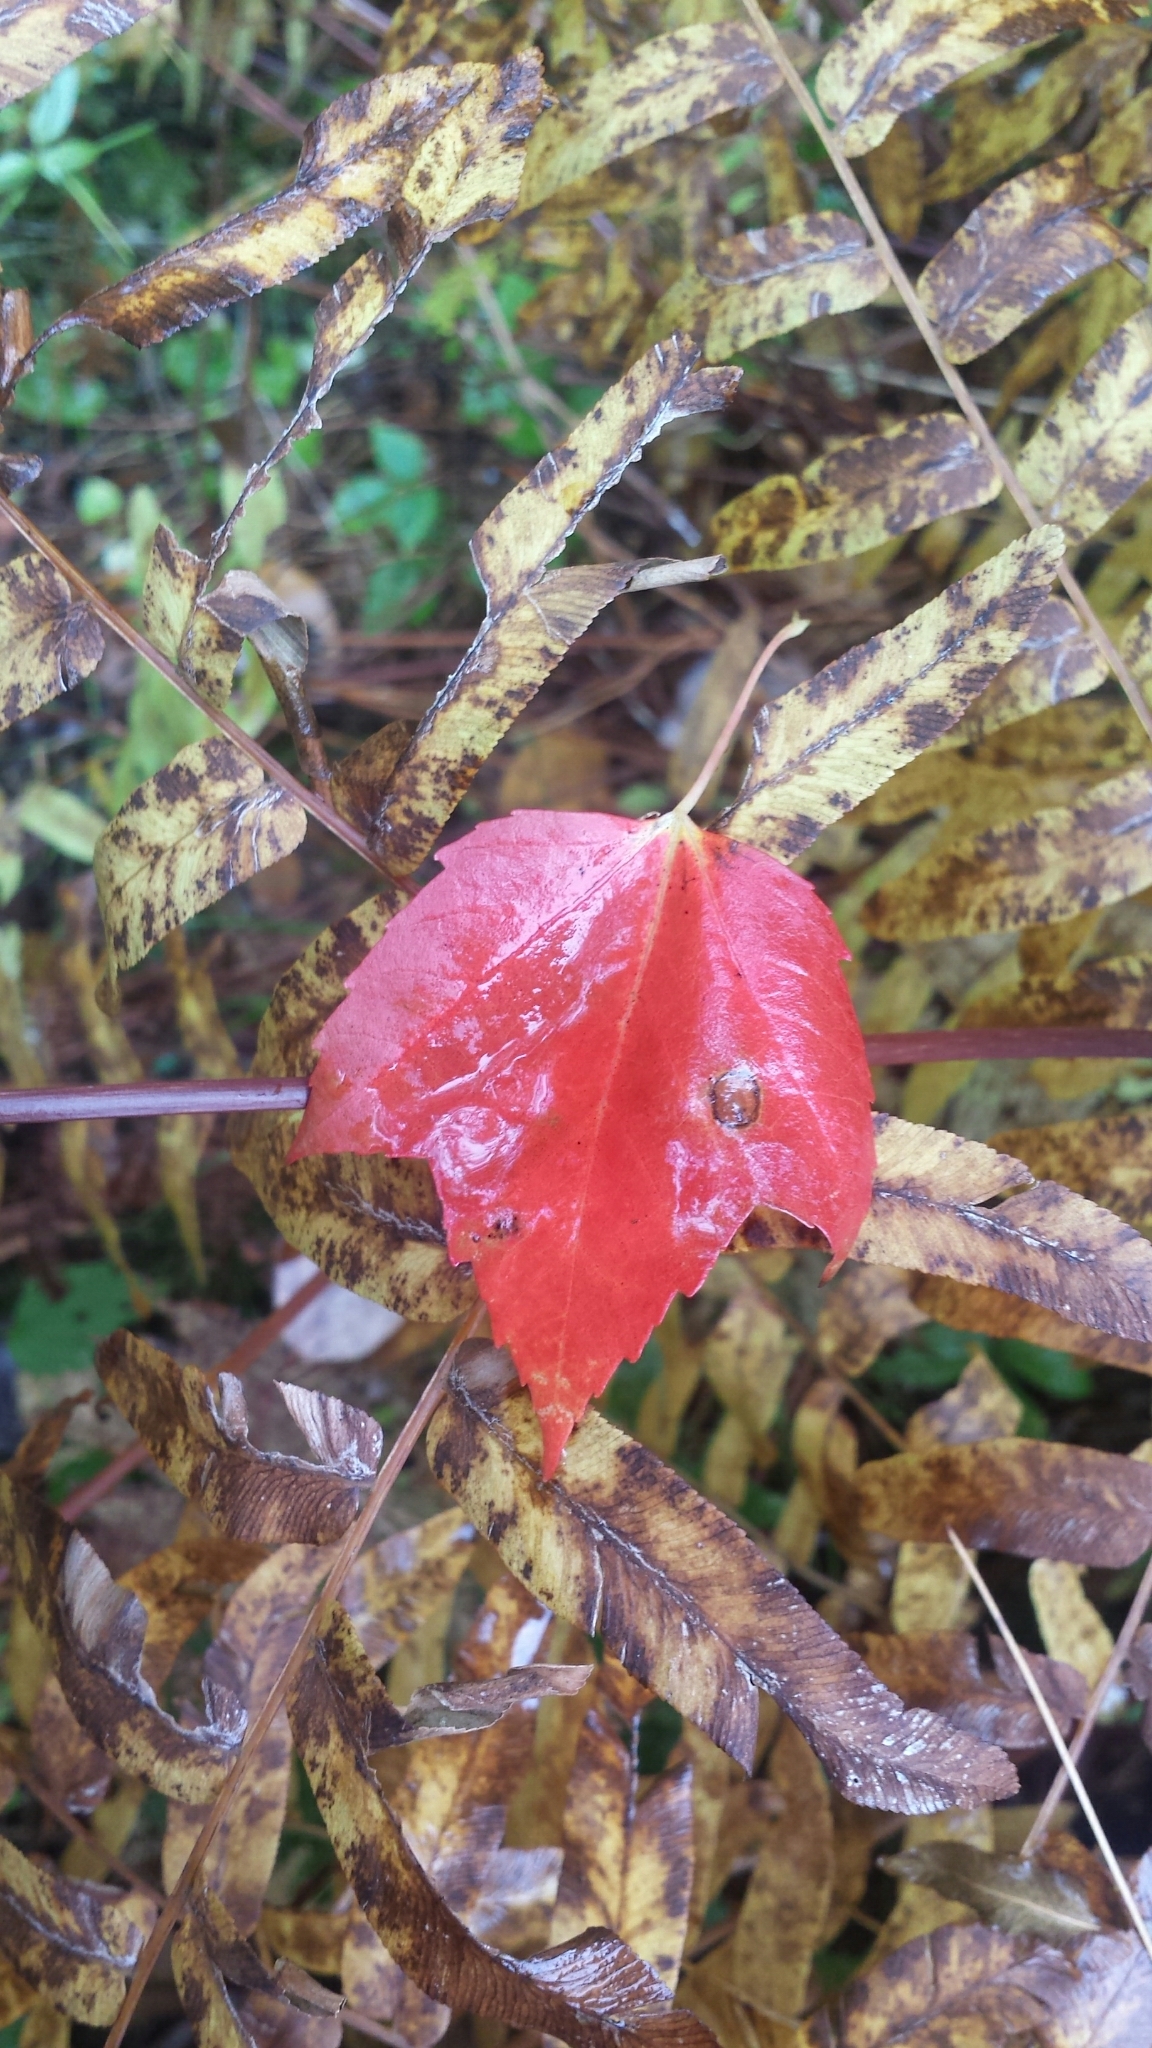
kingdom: Plantae
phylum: Tracheophyta
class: Magnoliopsida
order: Sapindales
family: Sapindaceae
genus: Acer
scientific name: Acer rubrum
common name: Red maple
